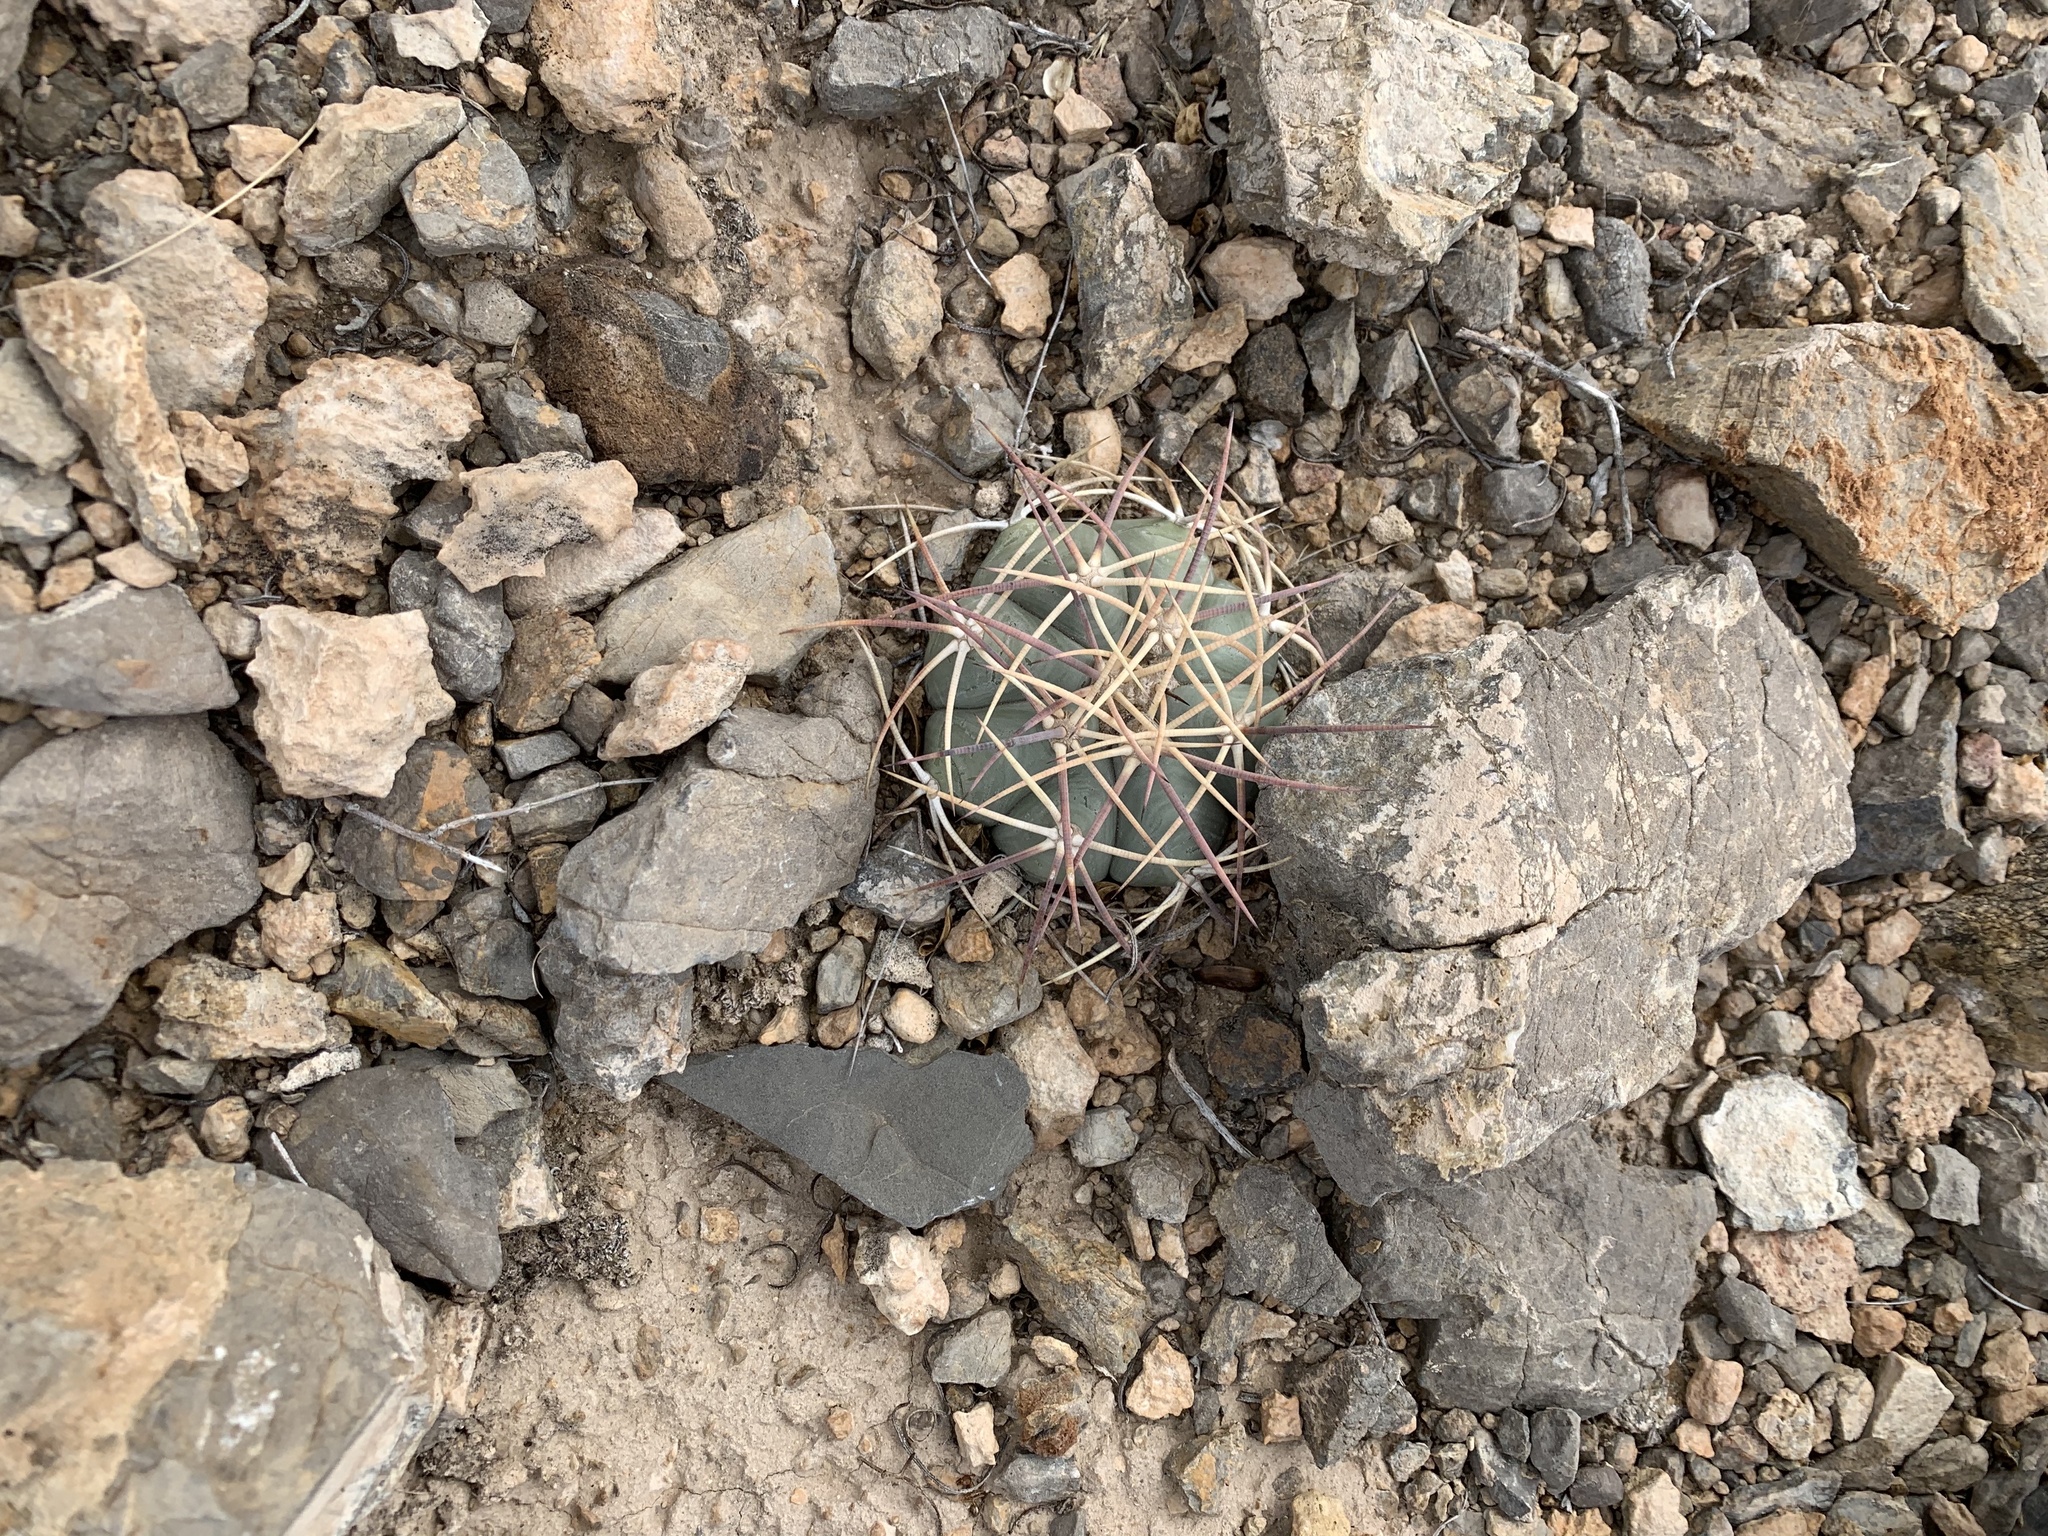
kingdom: Plantae
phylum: Tracheophyta
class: Magnoliopsida
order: Caryophyllales
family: Cactaceae
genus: Echinocactus
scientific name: Echinocactus horizonthalonius
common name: Devilshead
